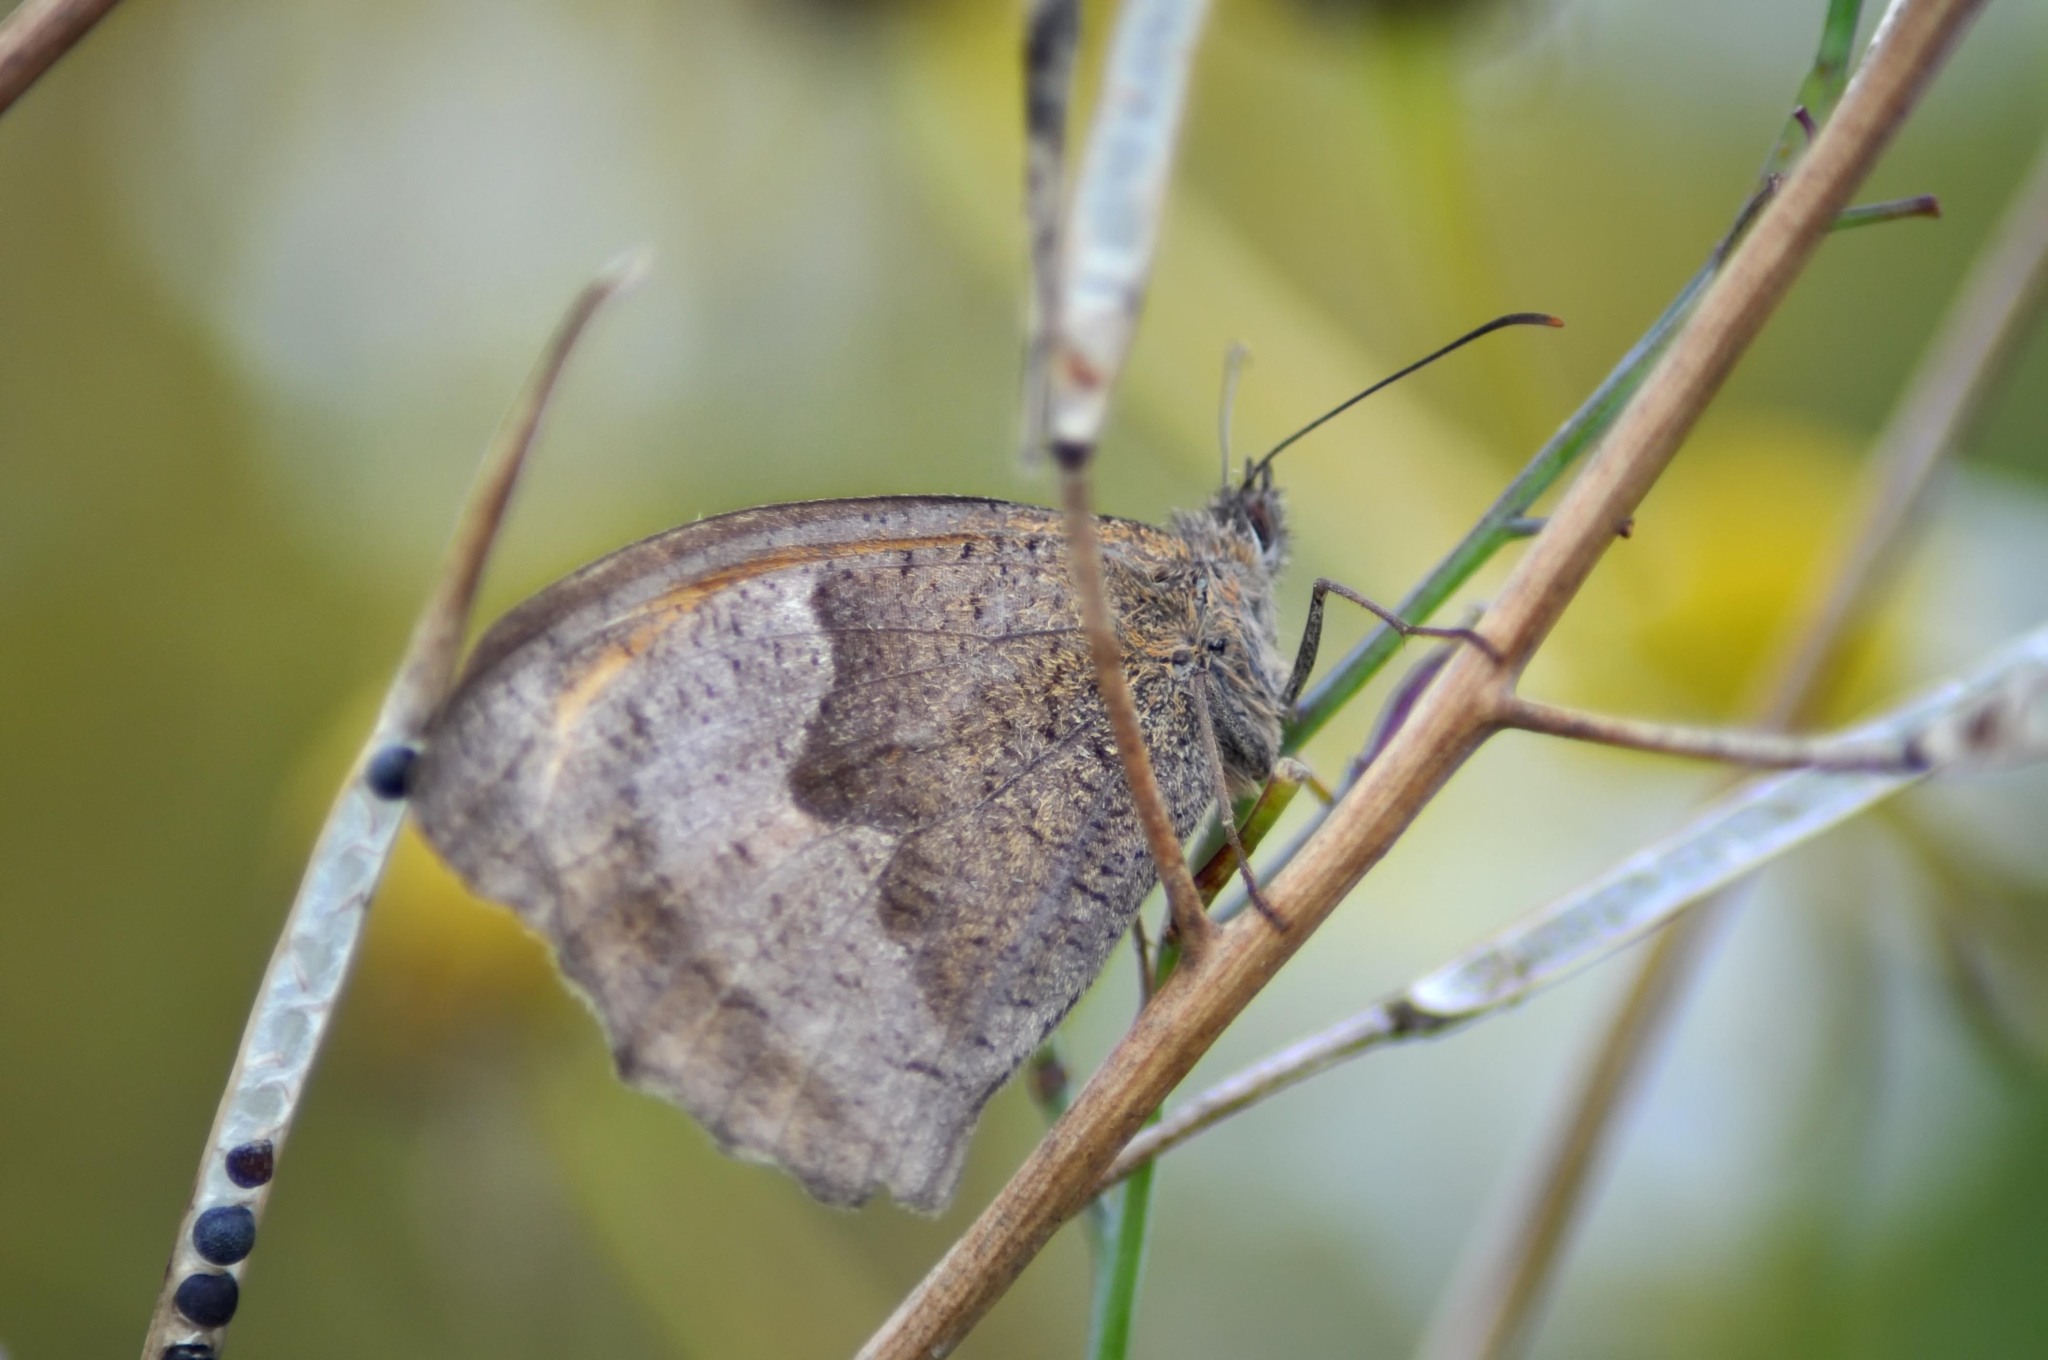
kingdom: Animalia
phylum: Arthropoda
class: Insecta
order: Lepidoptera
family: Nymphalidae
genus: Maniola
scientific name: Maniola jurtina
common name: Meadow brown
